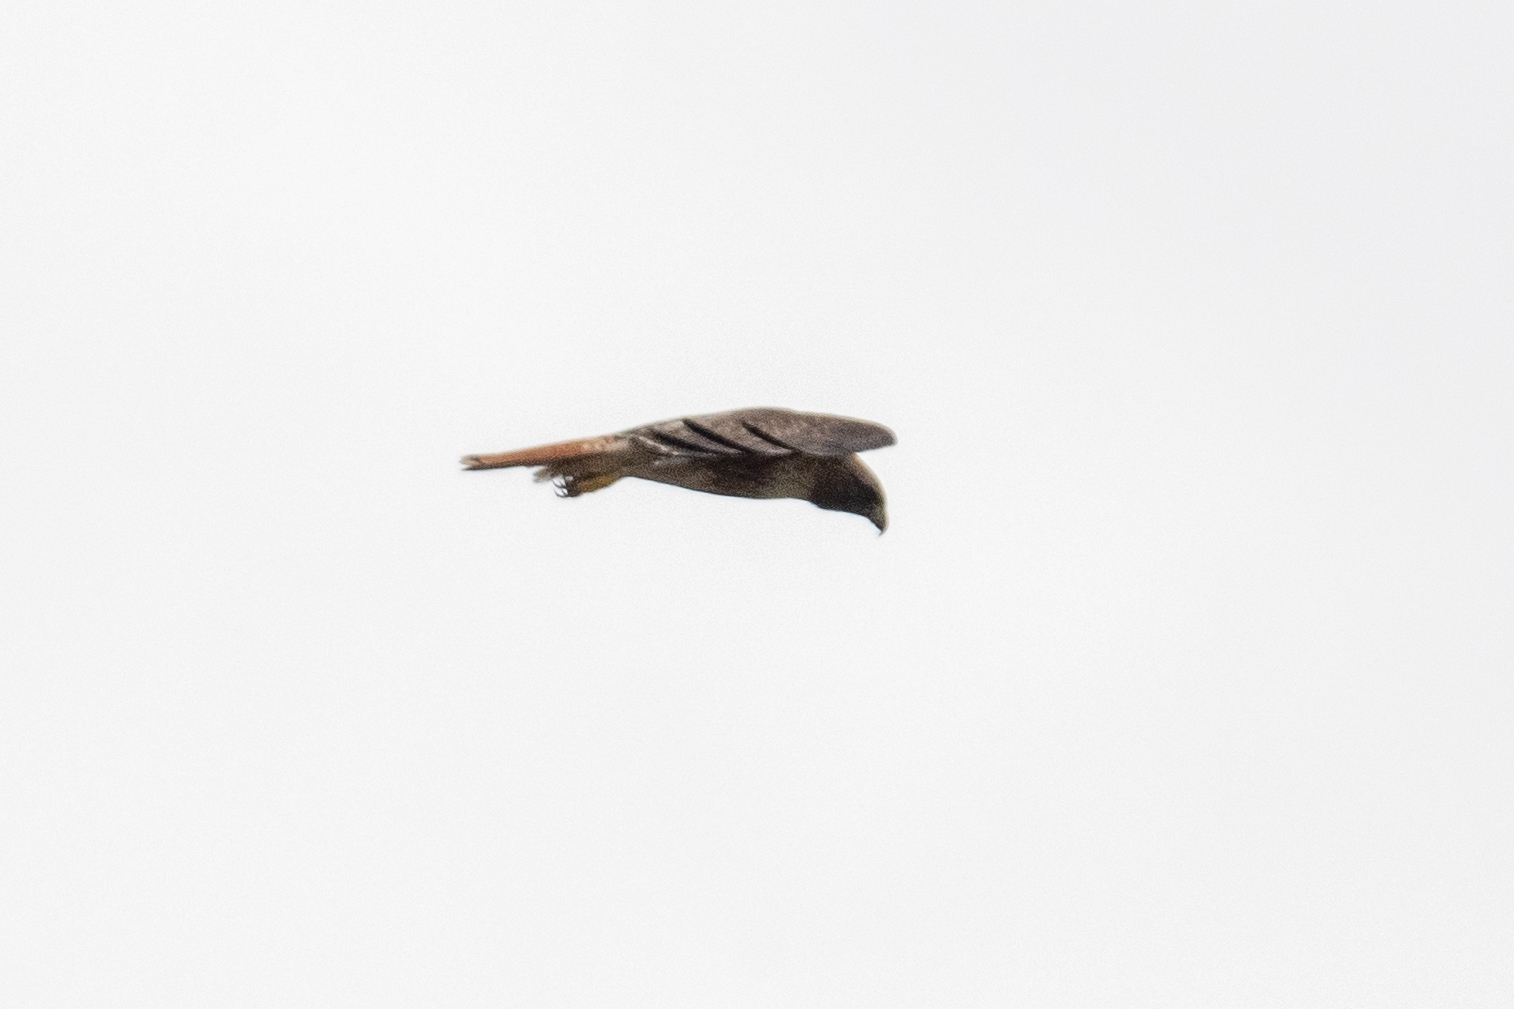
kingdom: Animalia
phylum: Chordata
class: Aves
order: Accipitriformes
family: Accipitridae
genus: Buteo
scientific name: Buteo jamaicensis
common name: Red-tailed hawk
